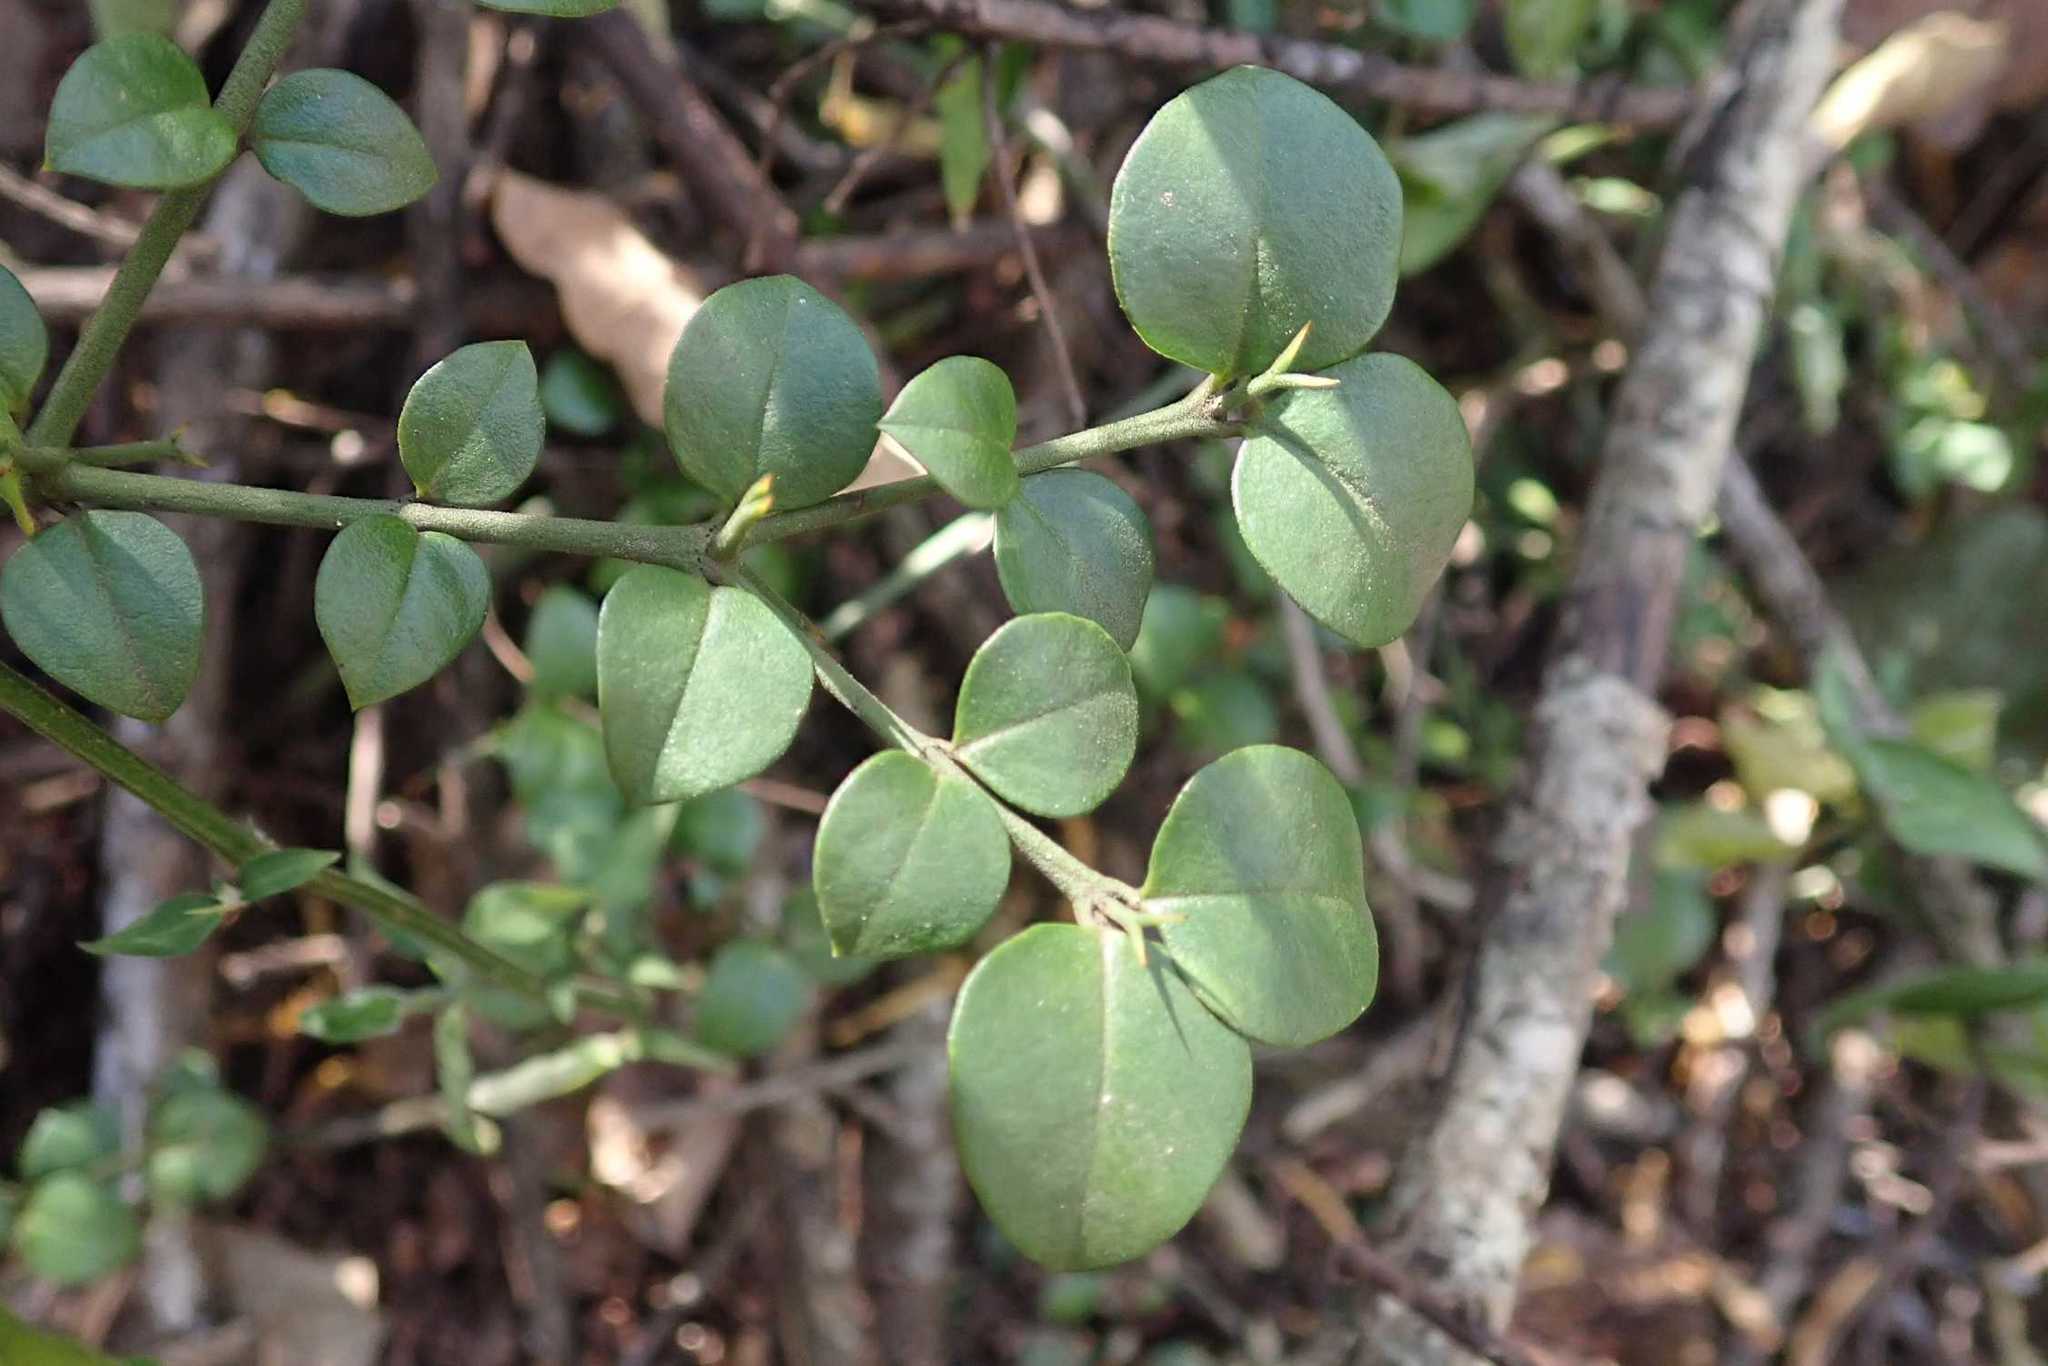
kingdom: Plantae
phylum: Tracheophyta
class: Magnoliopsida
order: Gentianales
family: Apocynaceae
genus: Carissa
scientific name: Carissa bispinosa
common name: Forest num-num
